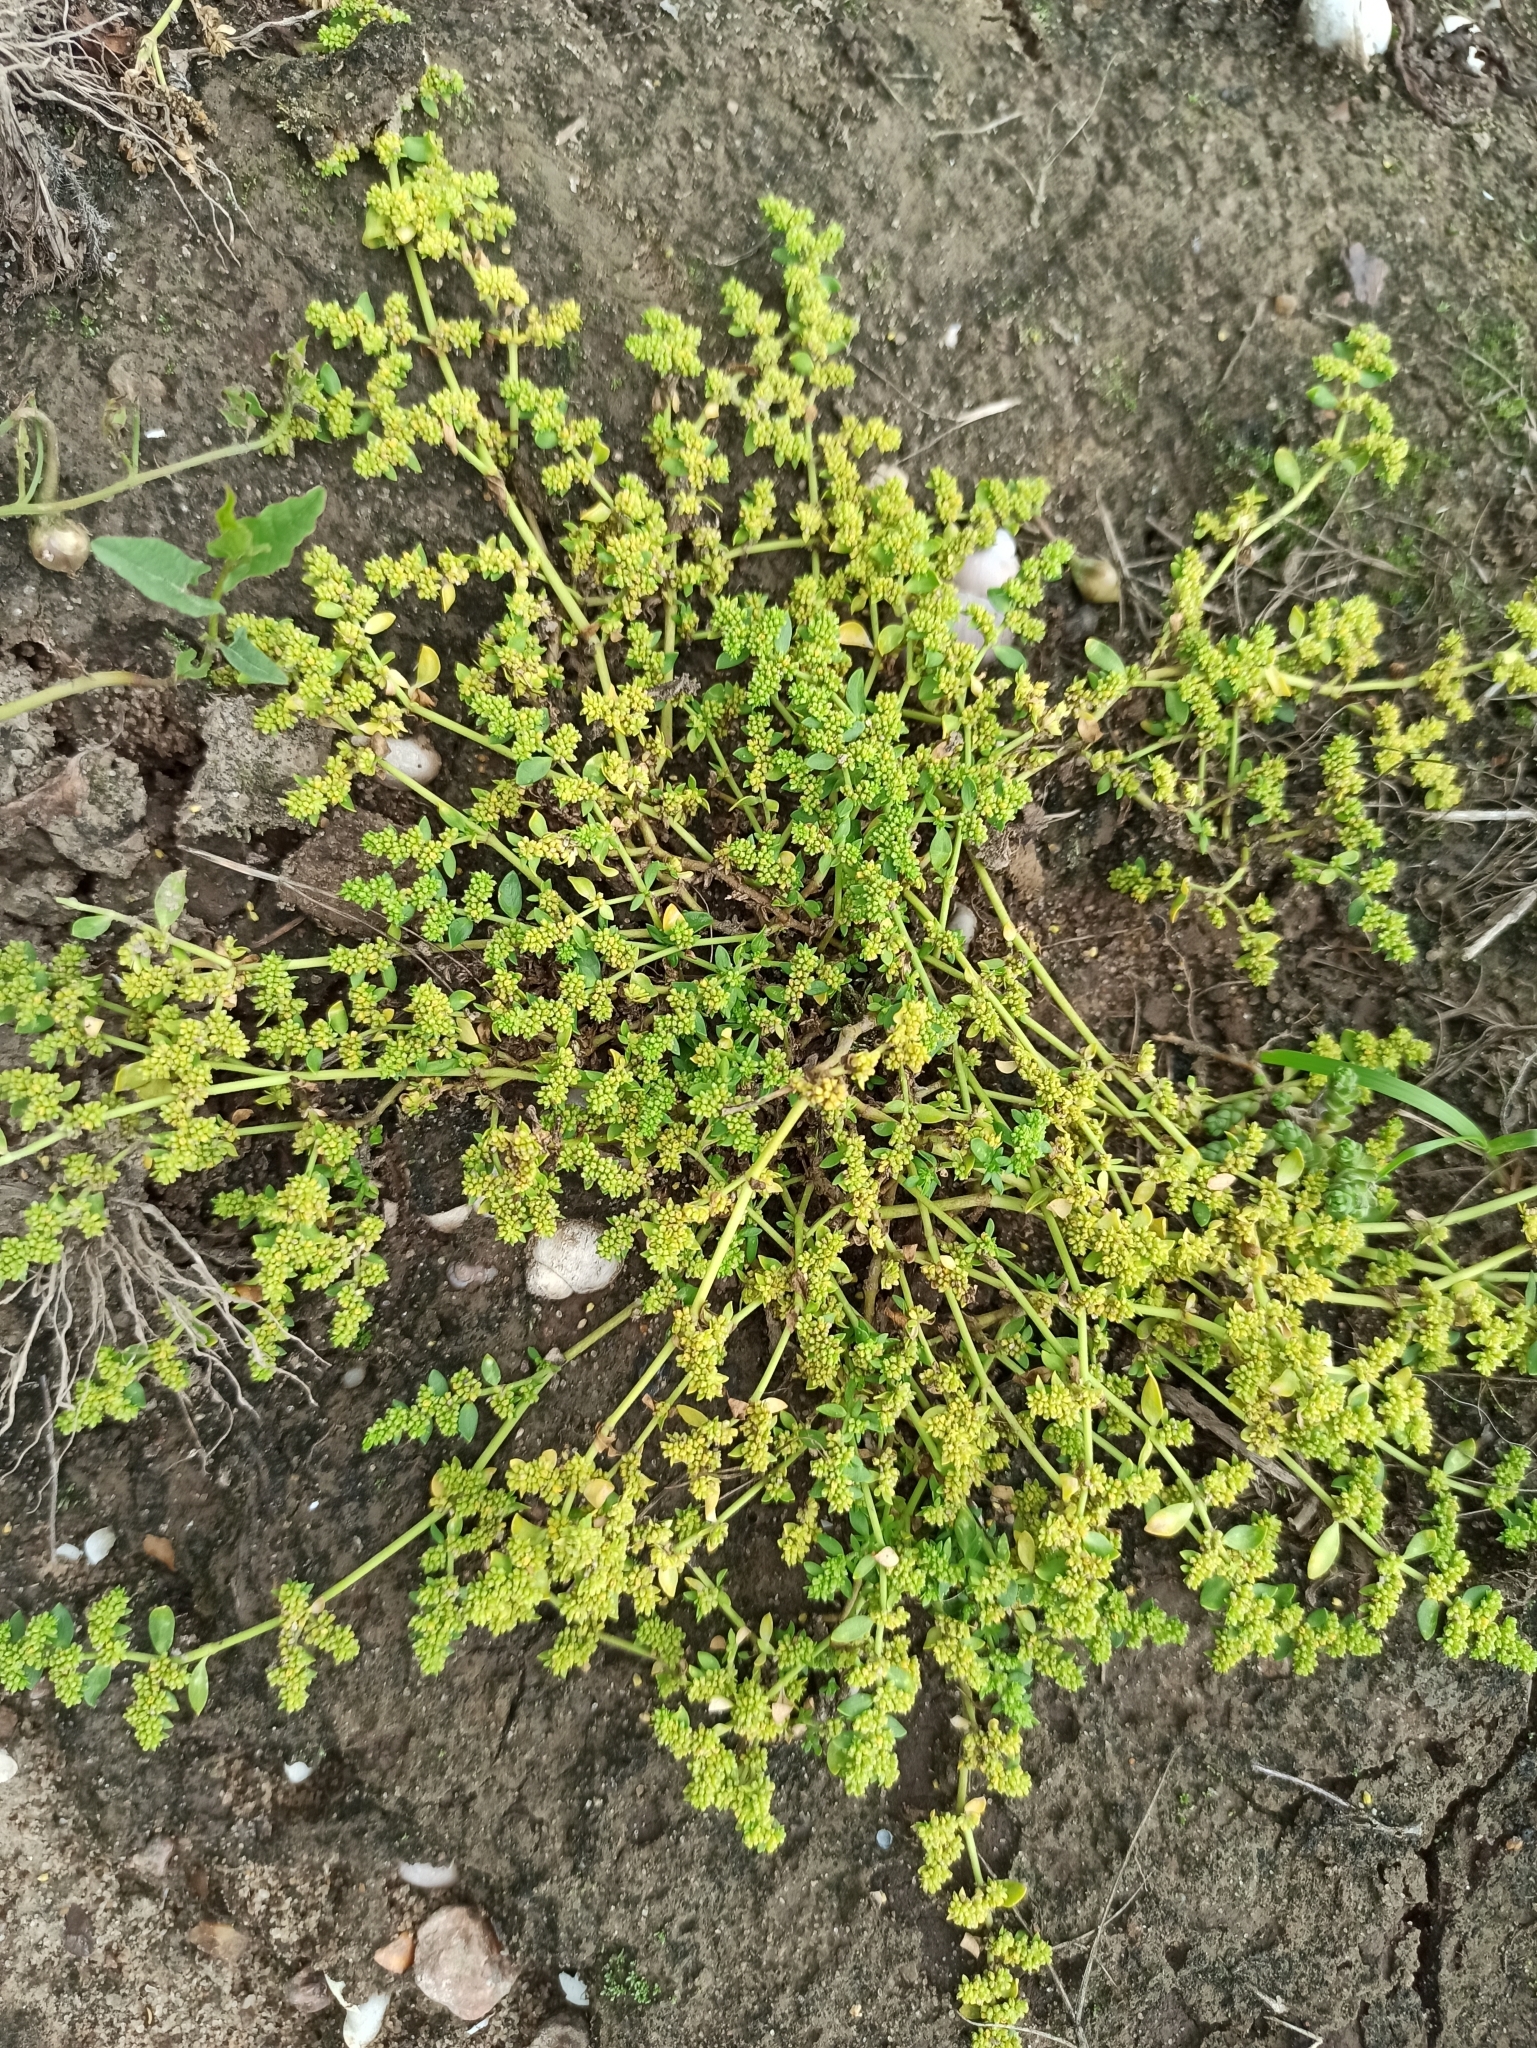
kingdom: Plantae
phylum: Tracheophyta
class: Magnoliopsida
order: Caryophyllales
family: Caryophyllaceae
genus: Herniaria
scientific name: Herniaria glabra
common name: Smooth rupturewort
